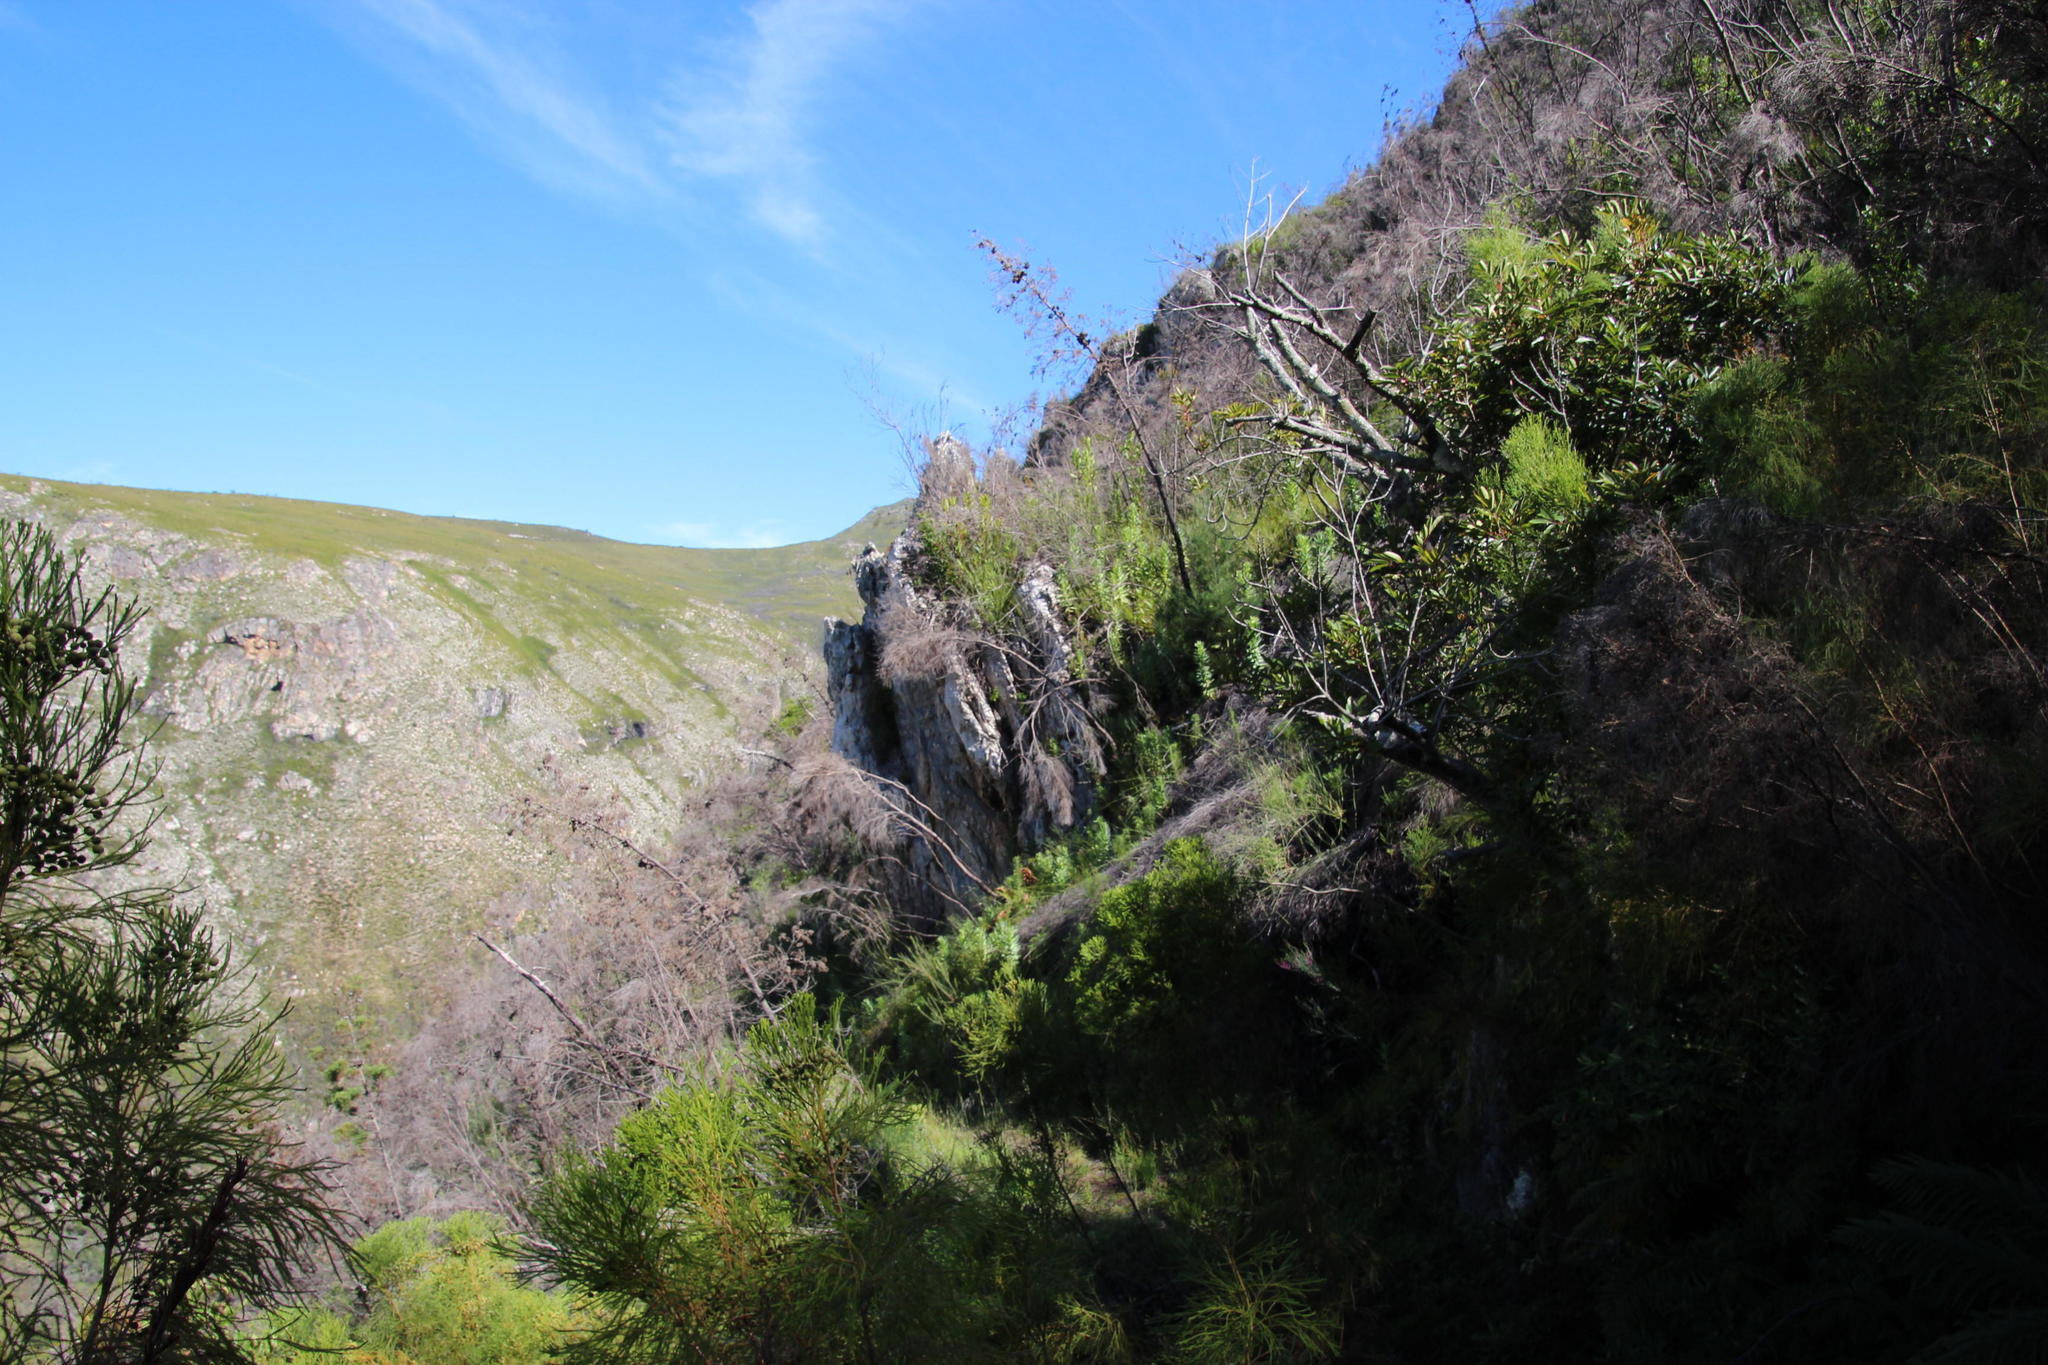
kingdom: Plantae
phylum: Tracheophyta
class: Pinopsida
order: Pinales
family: Cupressaceae
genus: Widdringtonia
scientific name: Widdringtonia nodiflora
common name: Cape cypress
